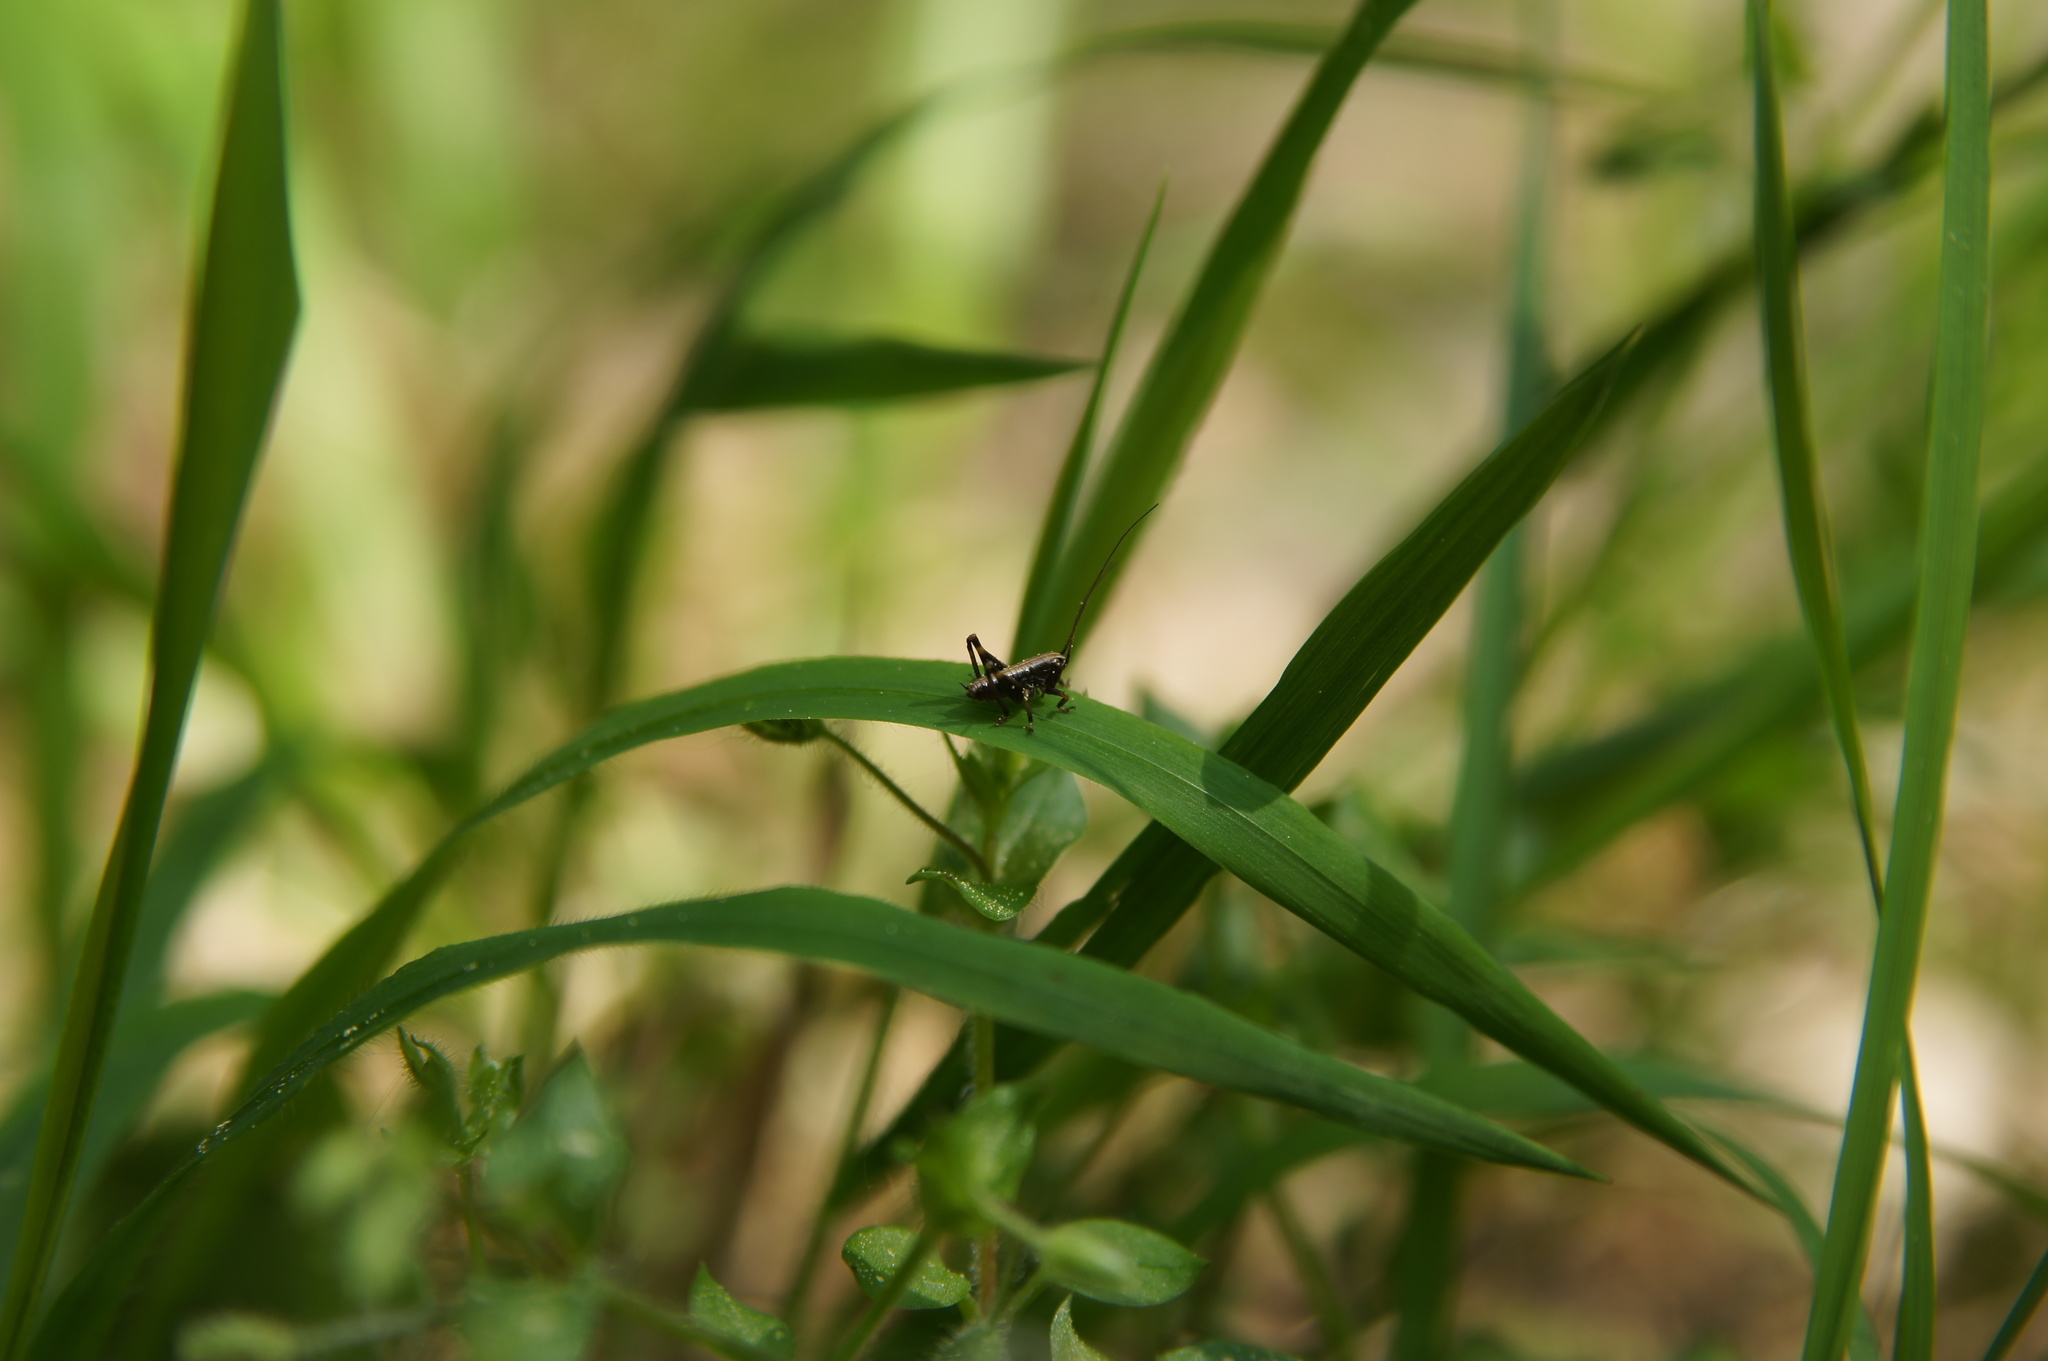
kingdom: Animalia
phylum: Arthropoda
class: Insecta
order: Orthoptera
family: Tettigoniidae
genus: Pholidoptera
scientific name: Pholidoptera griseoaptera
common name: Dark bush-cricket
